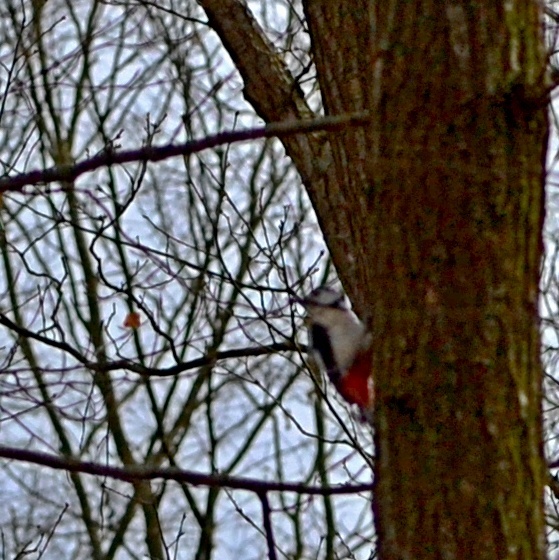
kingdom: Animalia
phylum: Chordata
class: Aves
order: Piciformes
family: Picidae
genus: Dendrocopos
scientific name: Dendrocopos major
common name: Great spotted woodpecker
